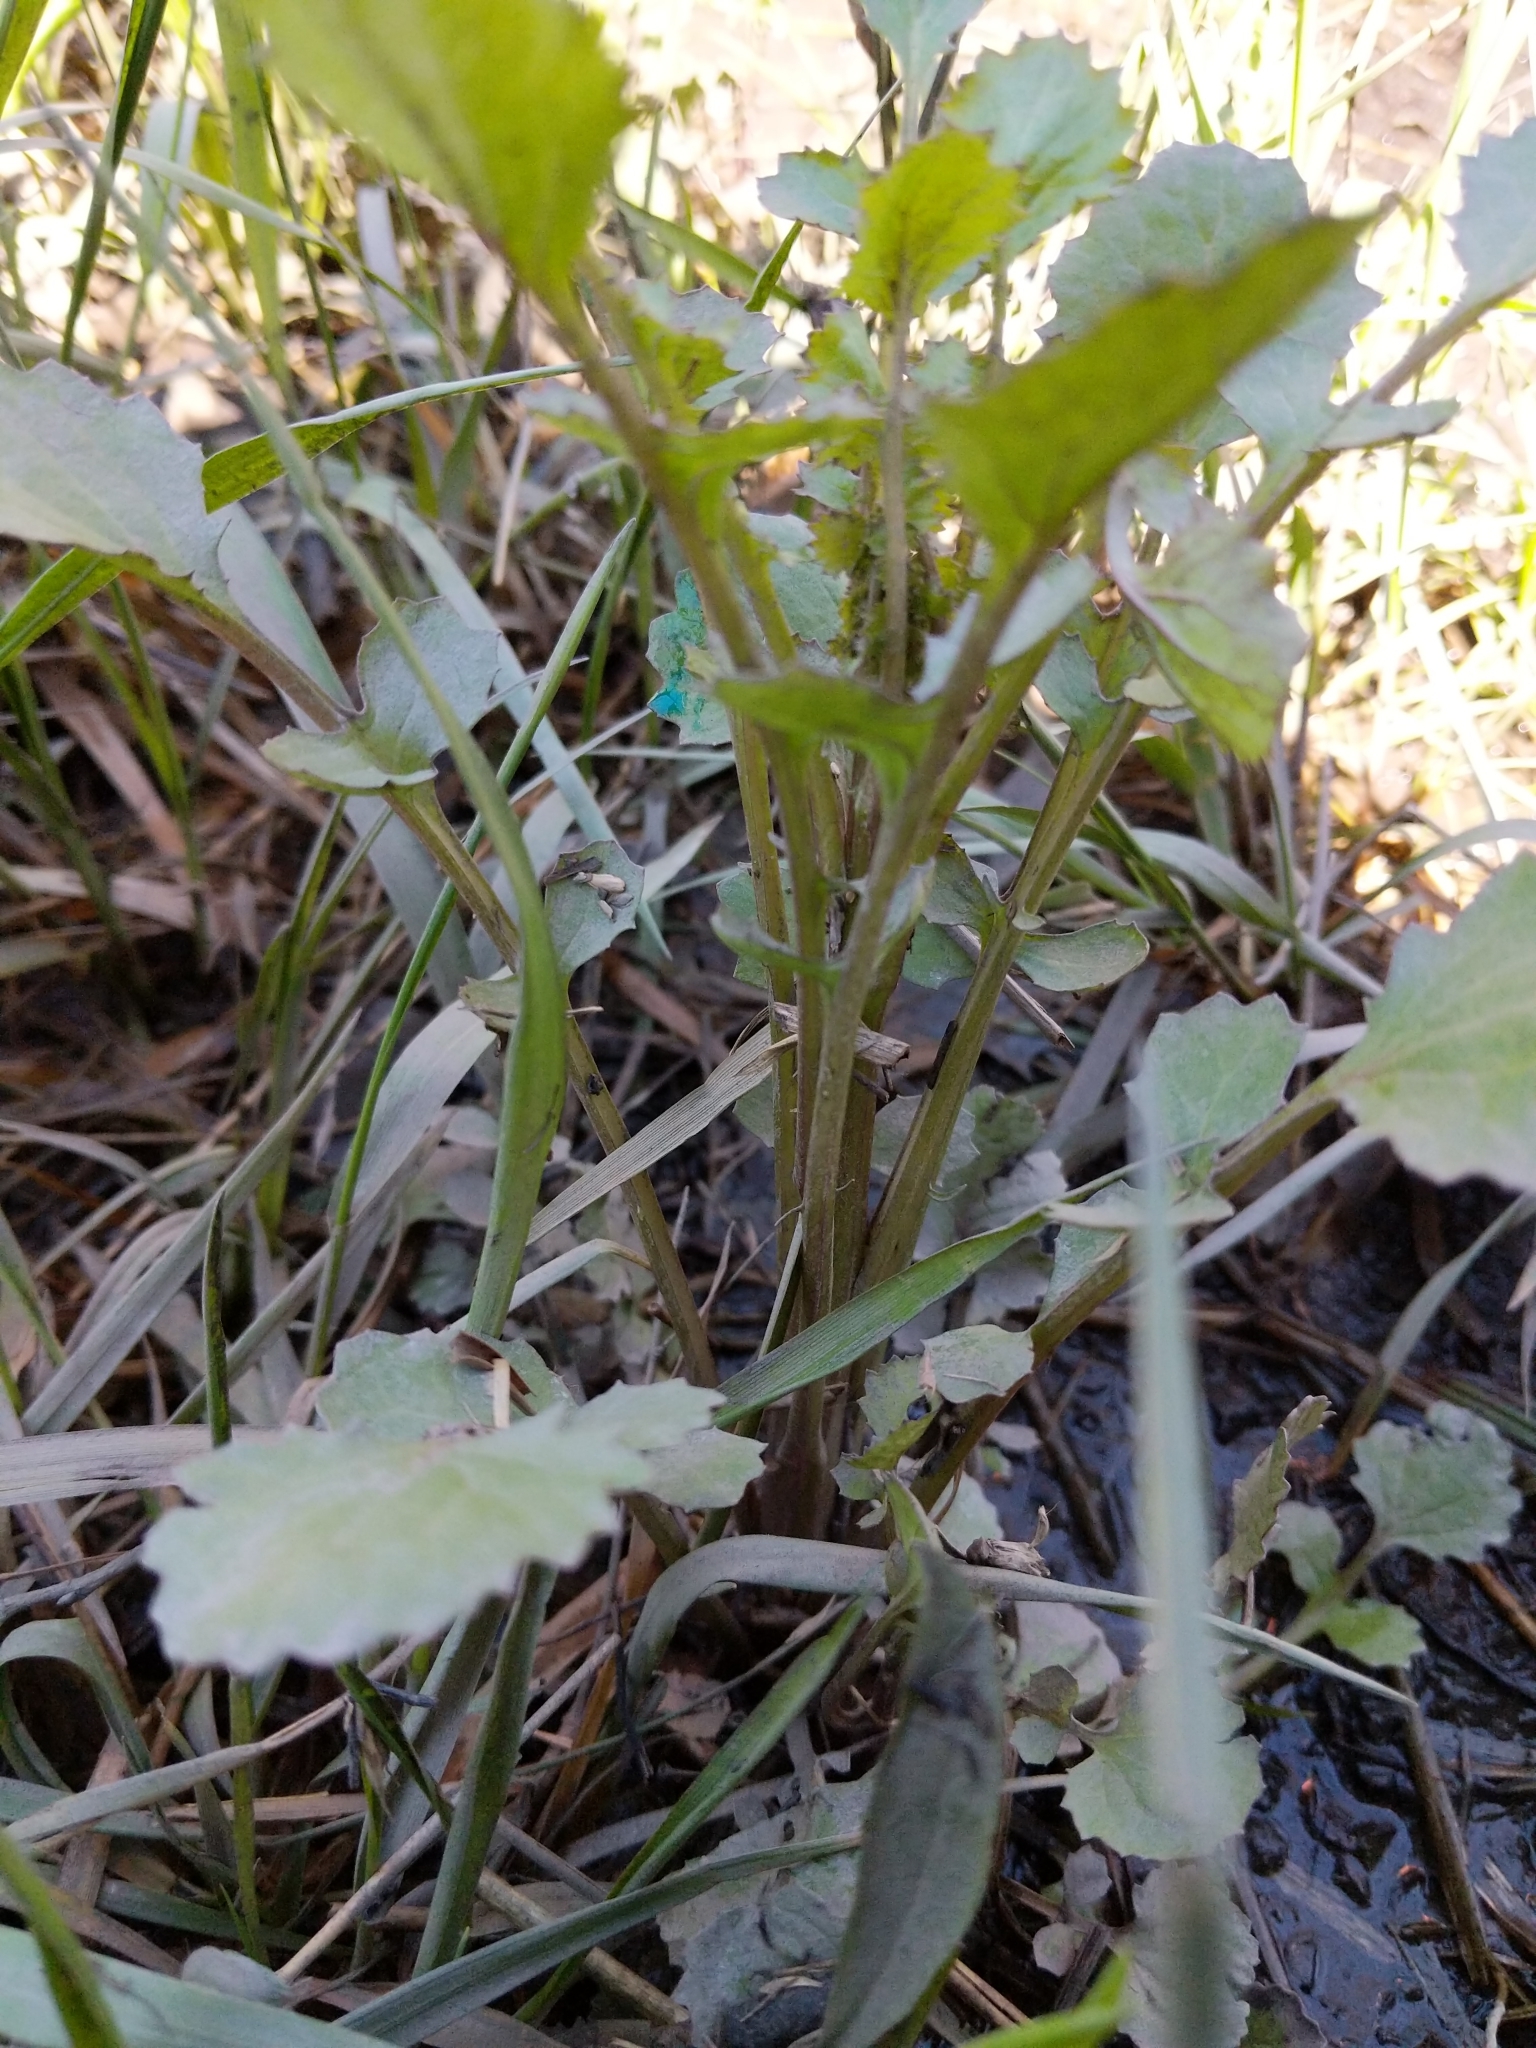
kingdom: Plantae
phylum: Tracheophyta
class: Magnoliopsida
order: Asterales
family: Asteraceae
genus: Packera
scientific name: Packera glabella
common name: Butterweed
